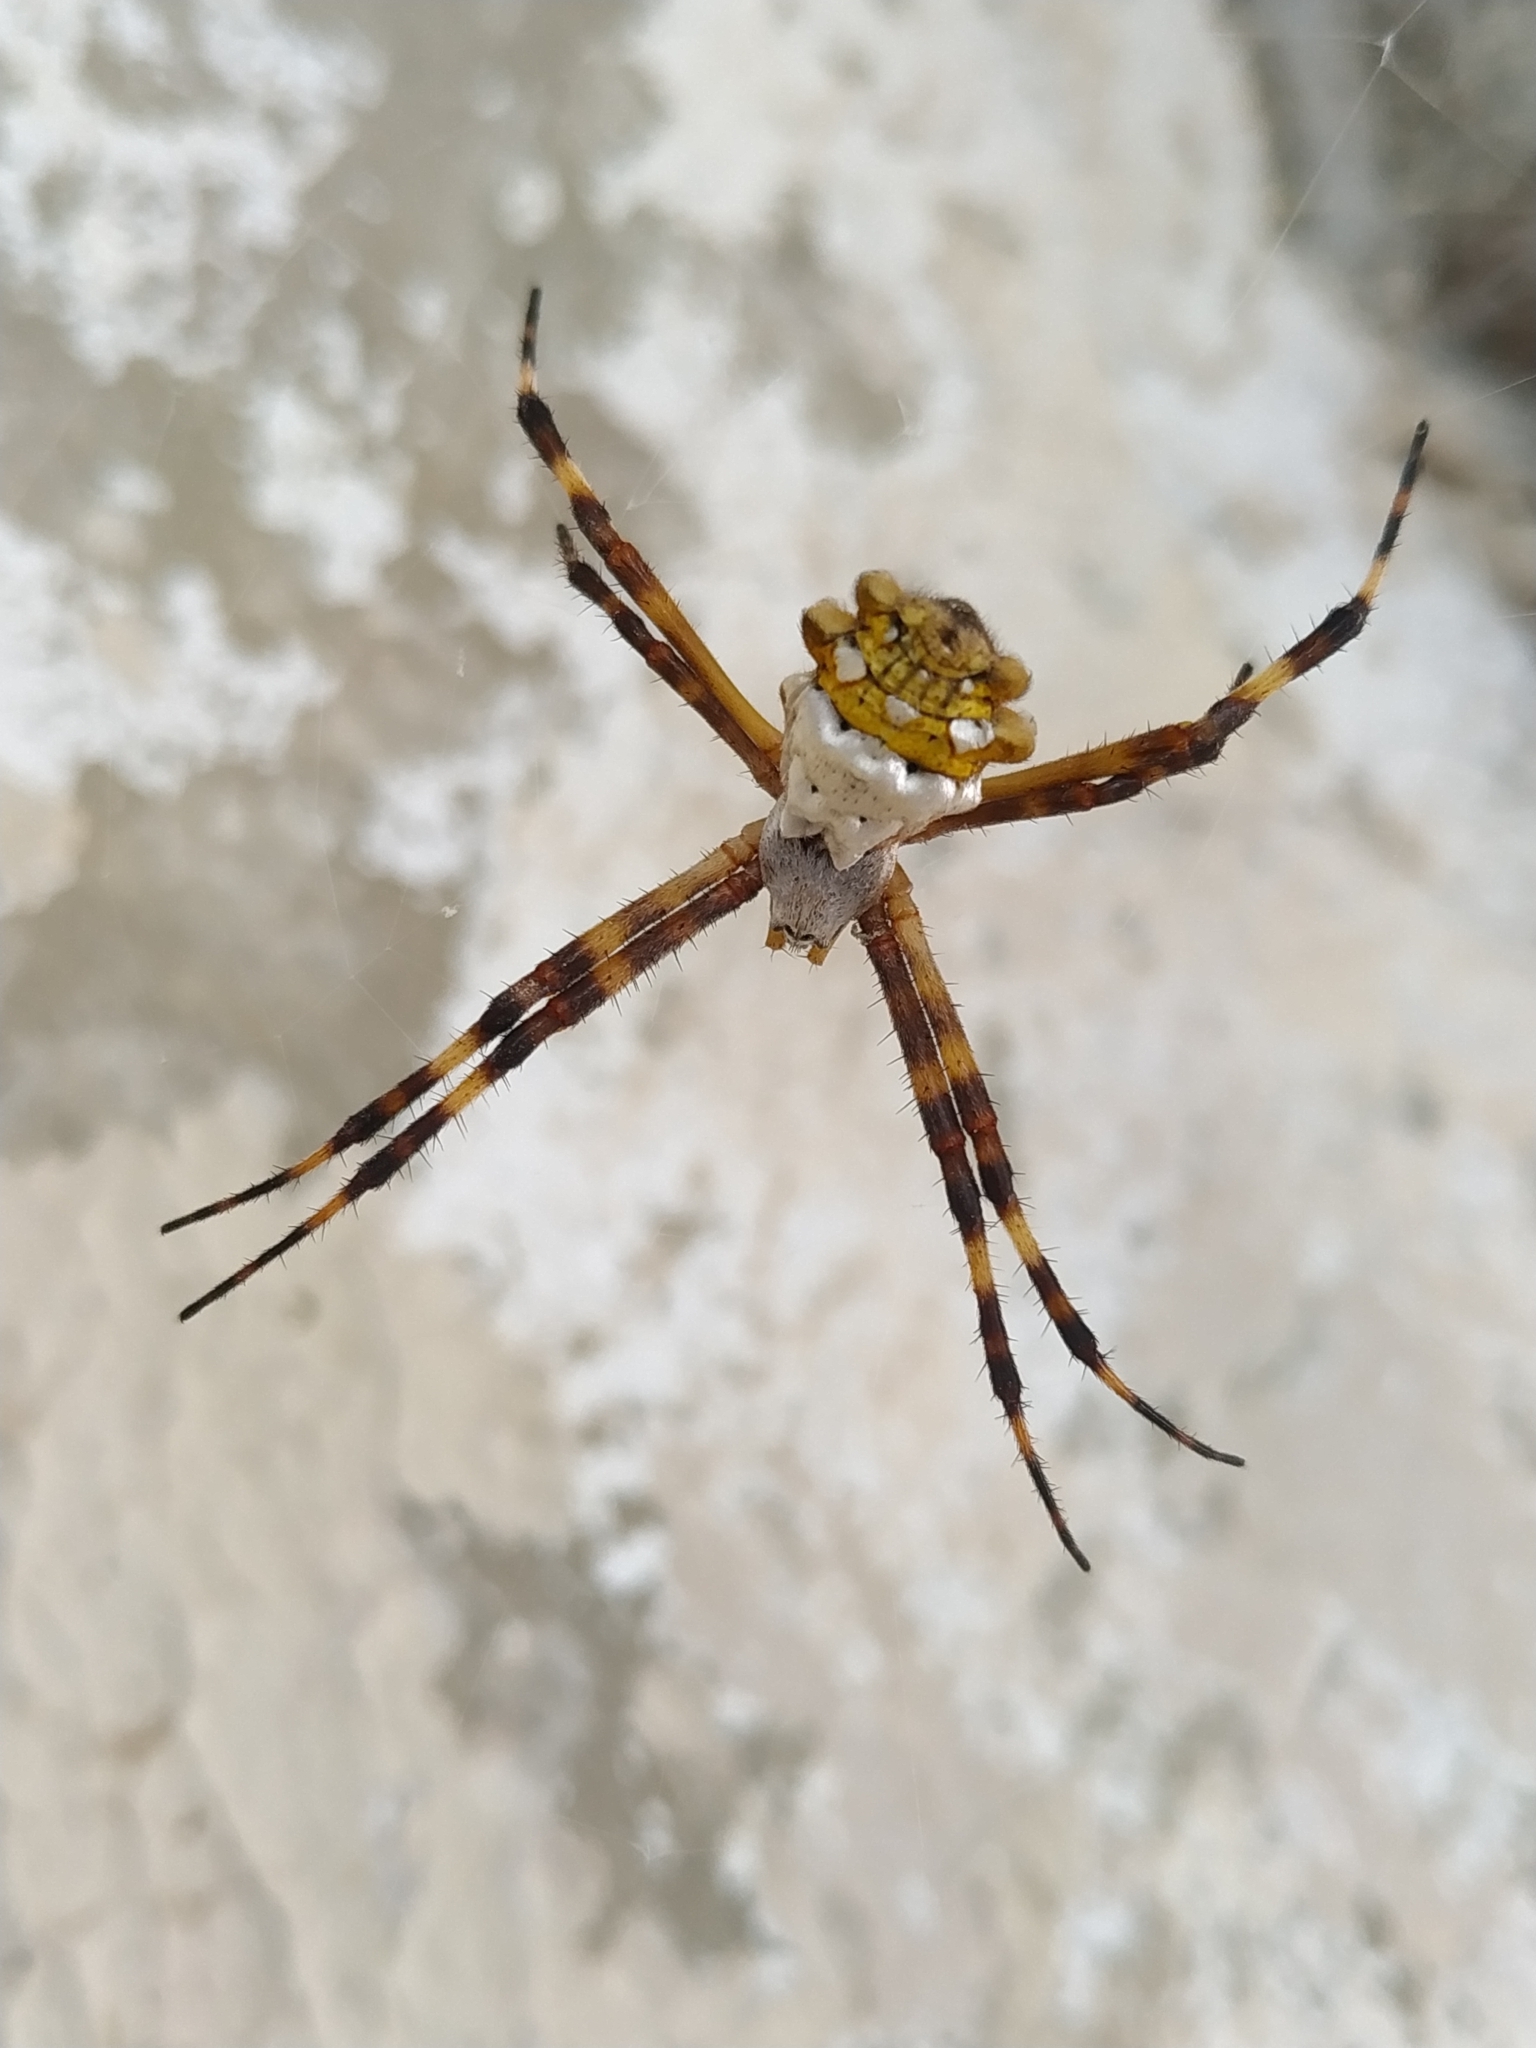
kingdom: Animalia
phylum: Arthropoda
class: Arachnida
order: Araneae
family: Araneidae
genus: Argiope
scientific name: Argiope argentata
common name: Orb weavers
